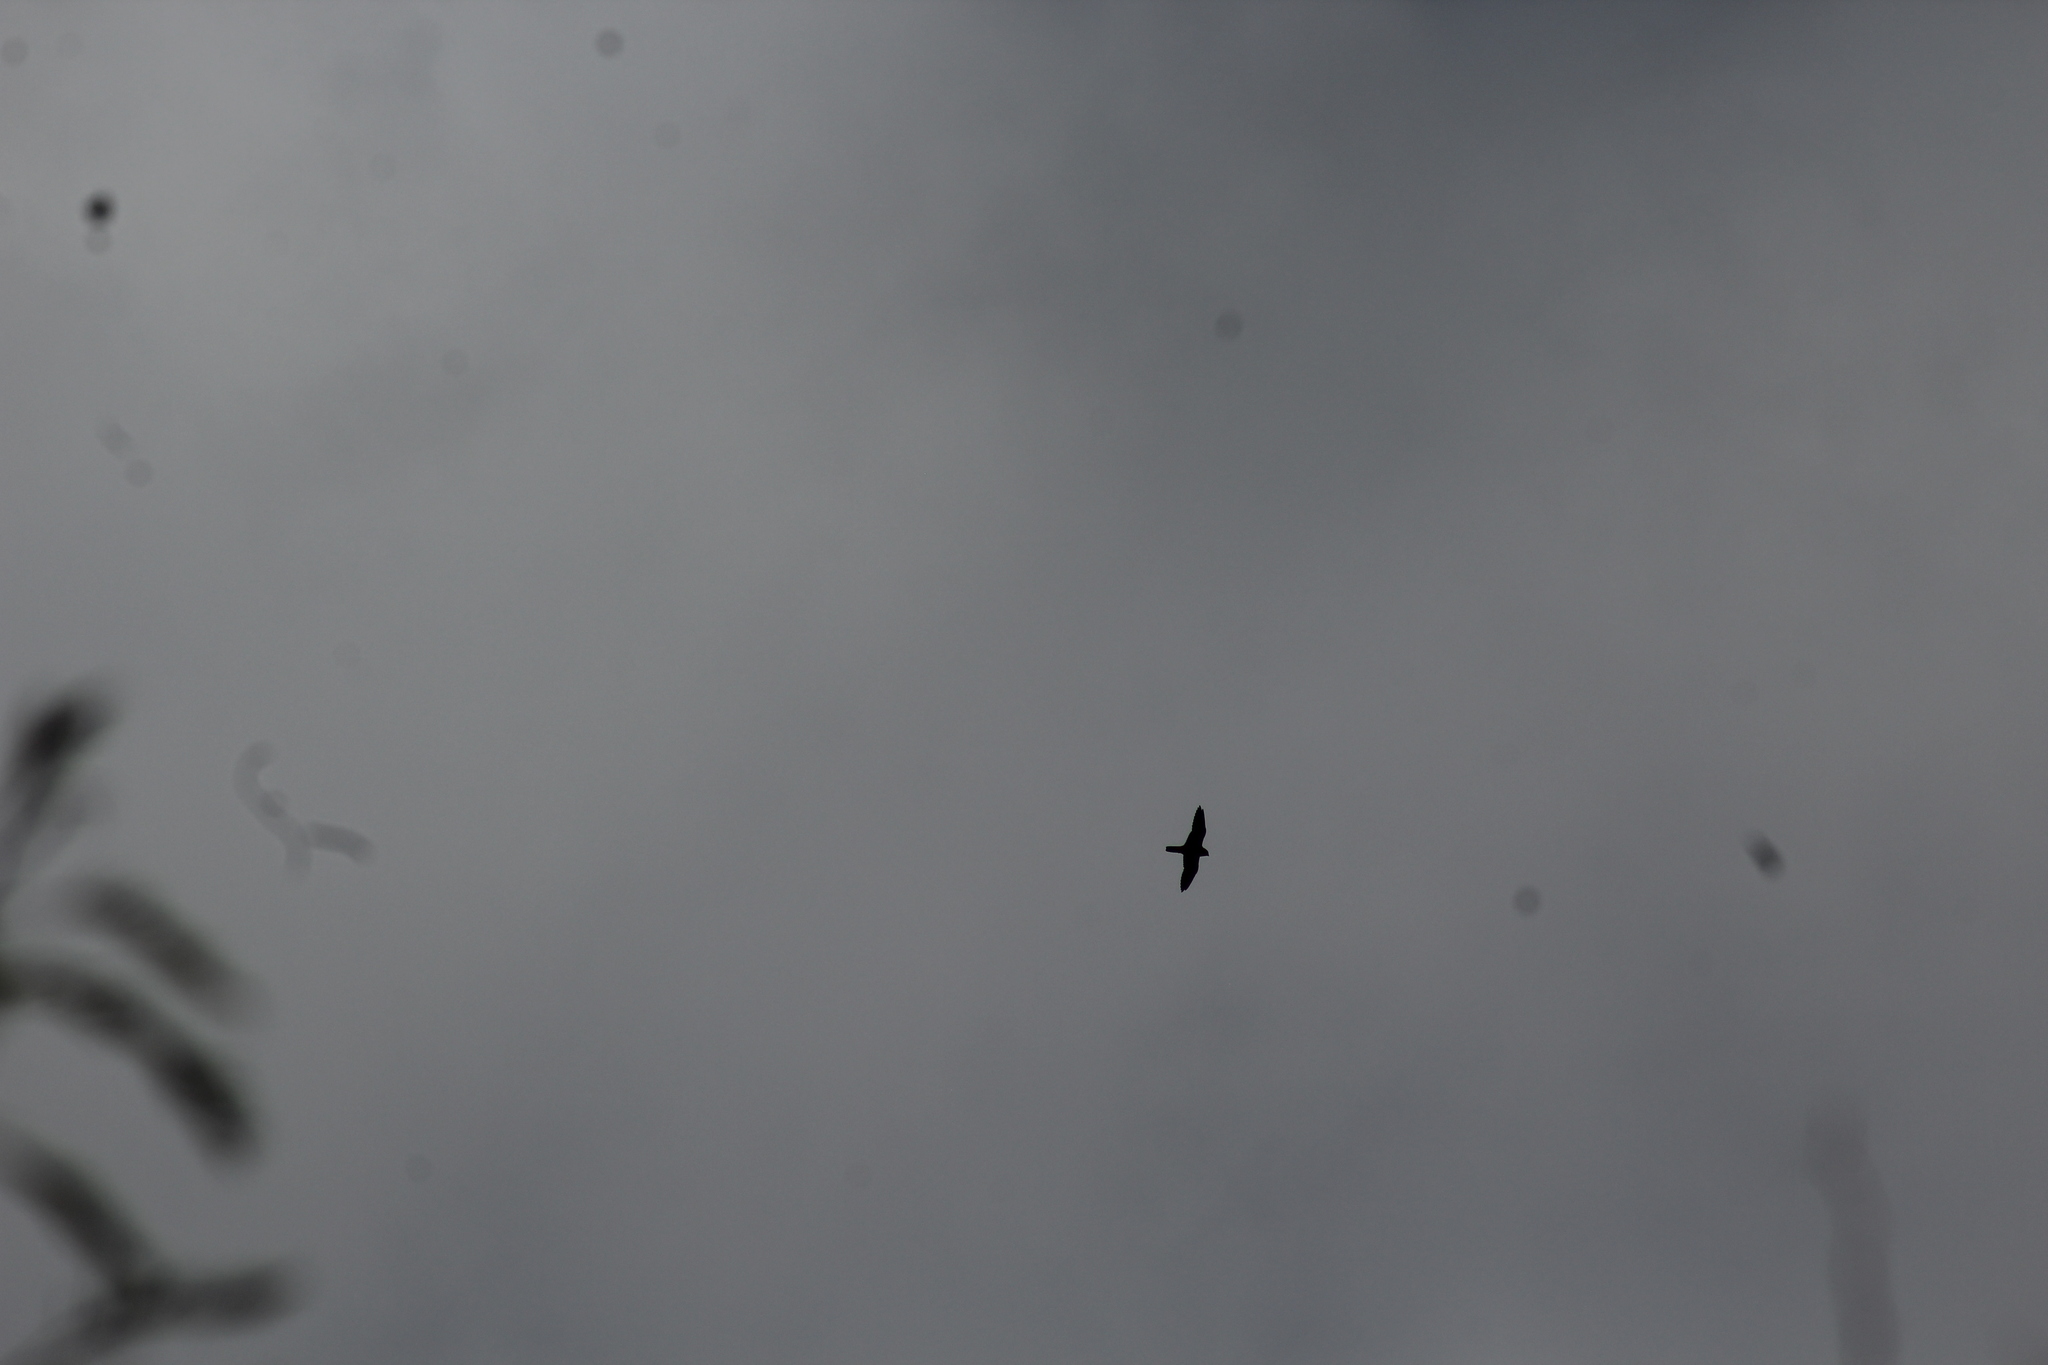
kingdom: Animalia
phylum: Chordata
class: Aves
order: Falconiformes
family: Falconidae
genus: Falco
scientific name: Falco rufigularis
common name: Bat falcon
